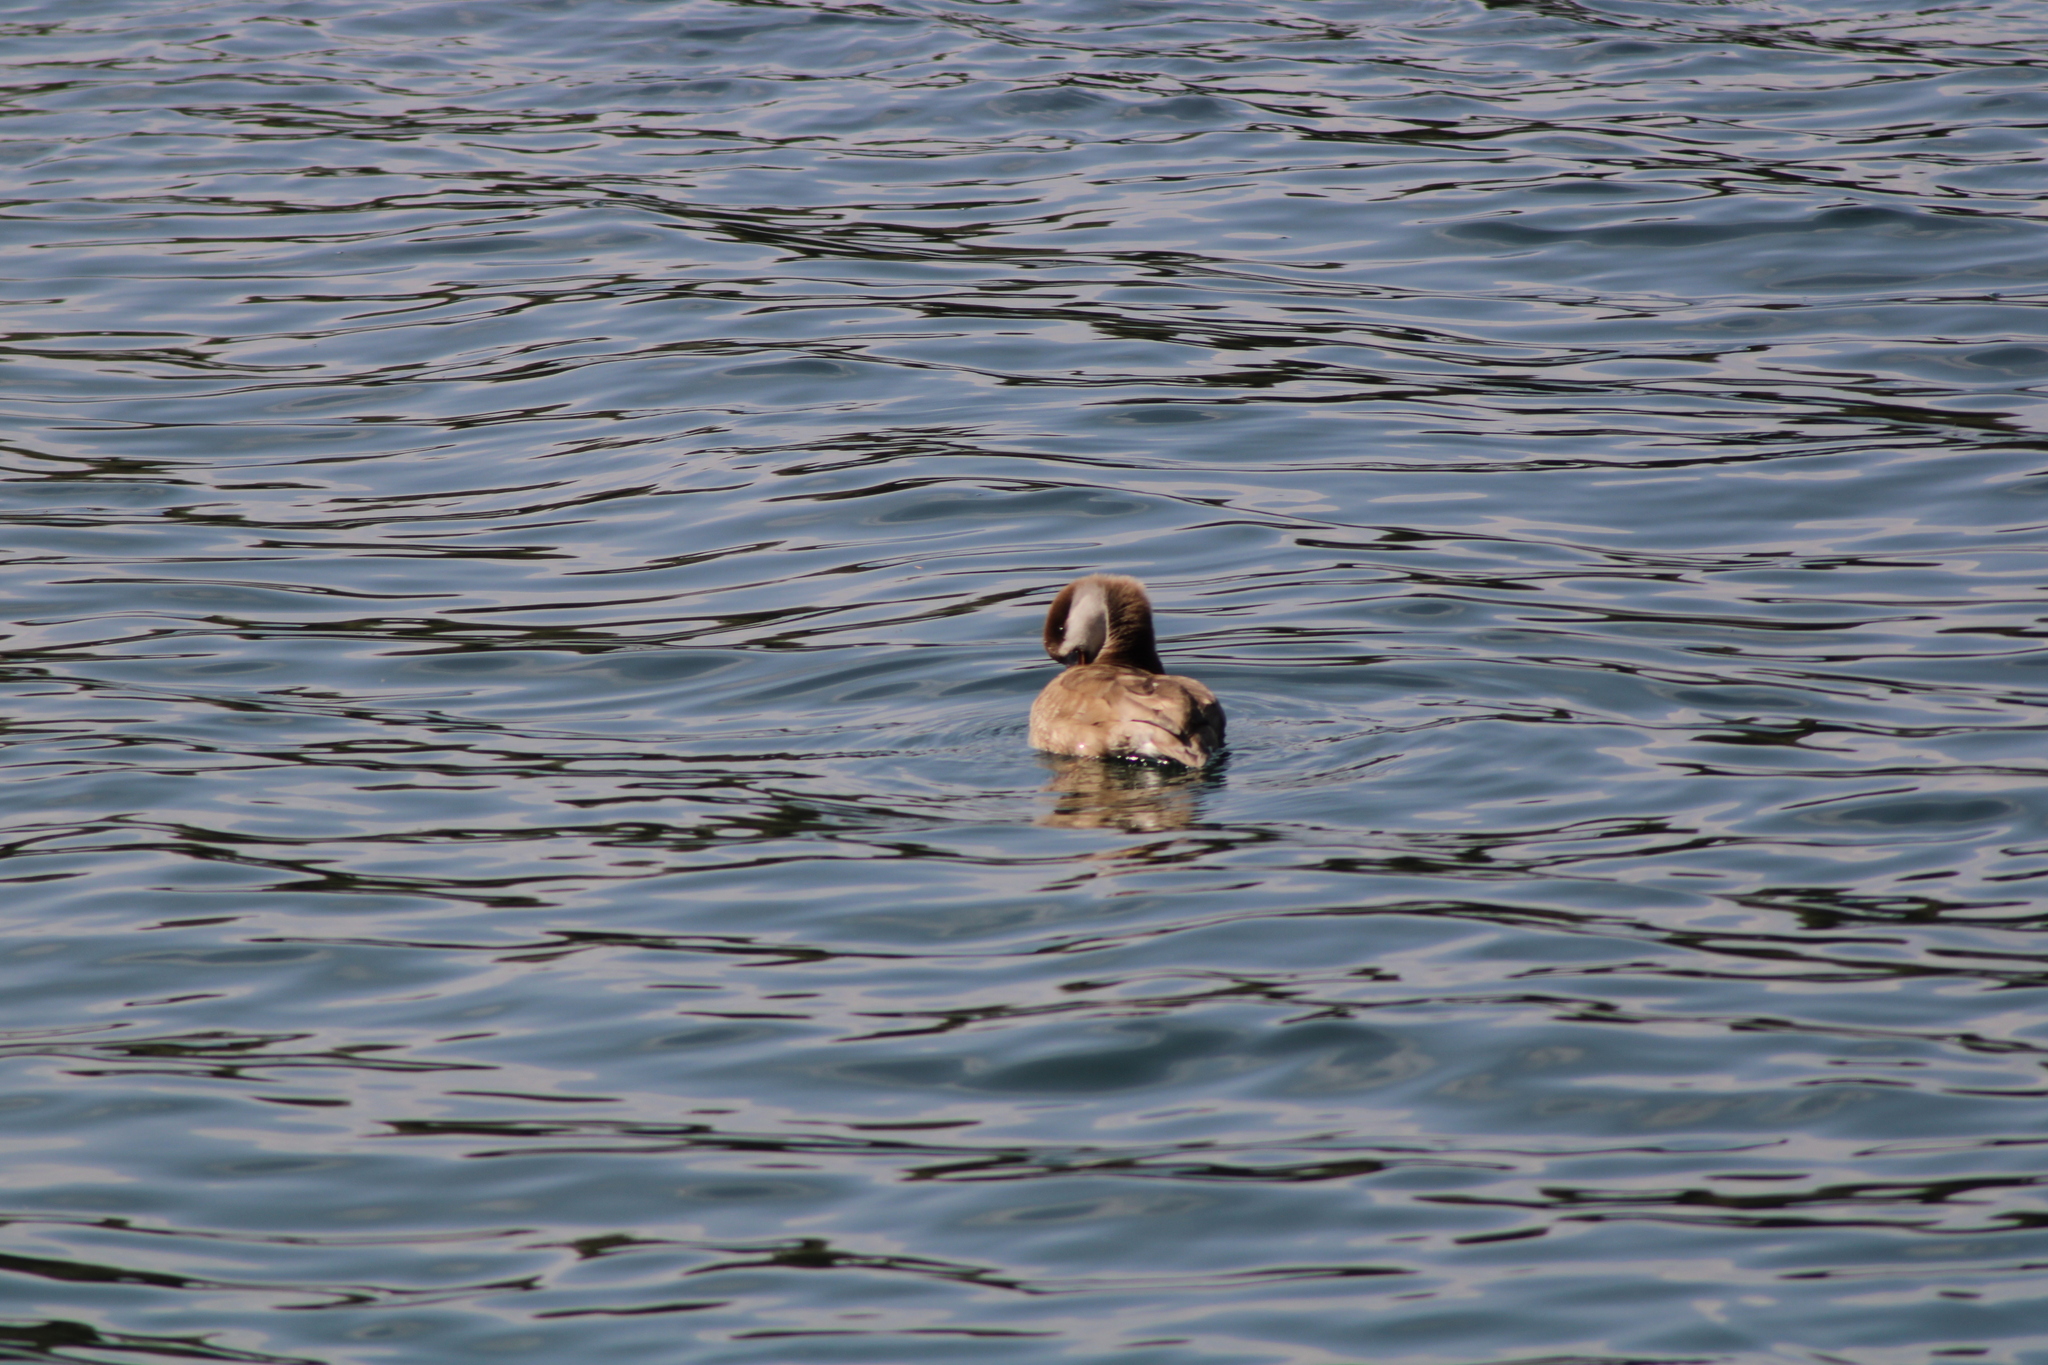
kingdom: Animalia
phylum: Chordata
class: Aves
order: Anseriformes
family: Anatidae
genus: Netta
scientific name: Netta rufina
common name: Red-crested pochard
